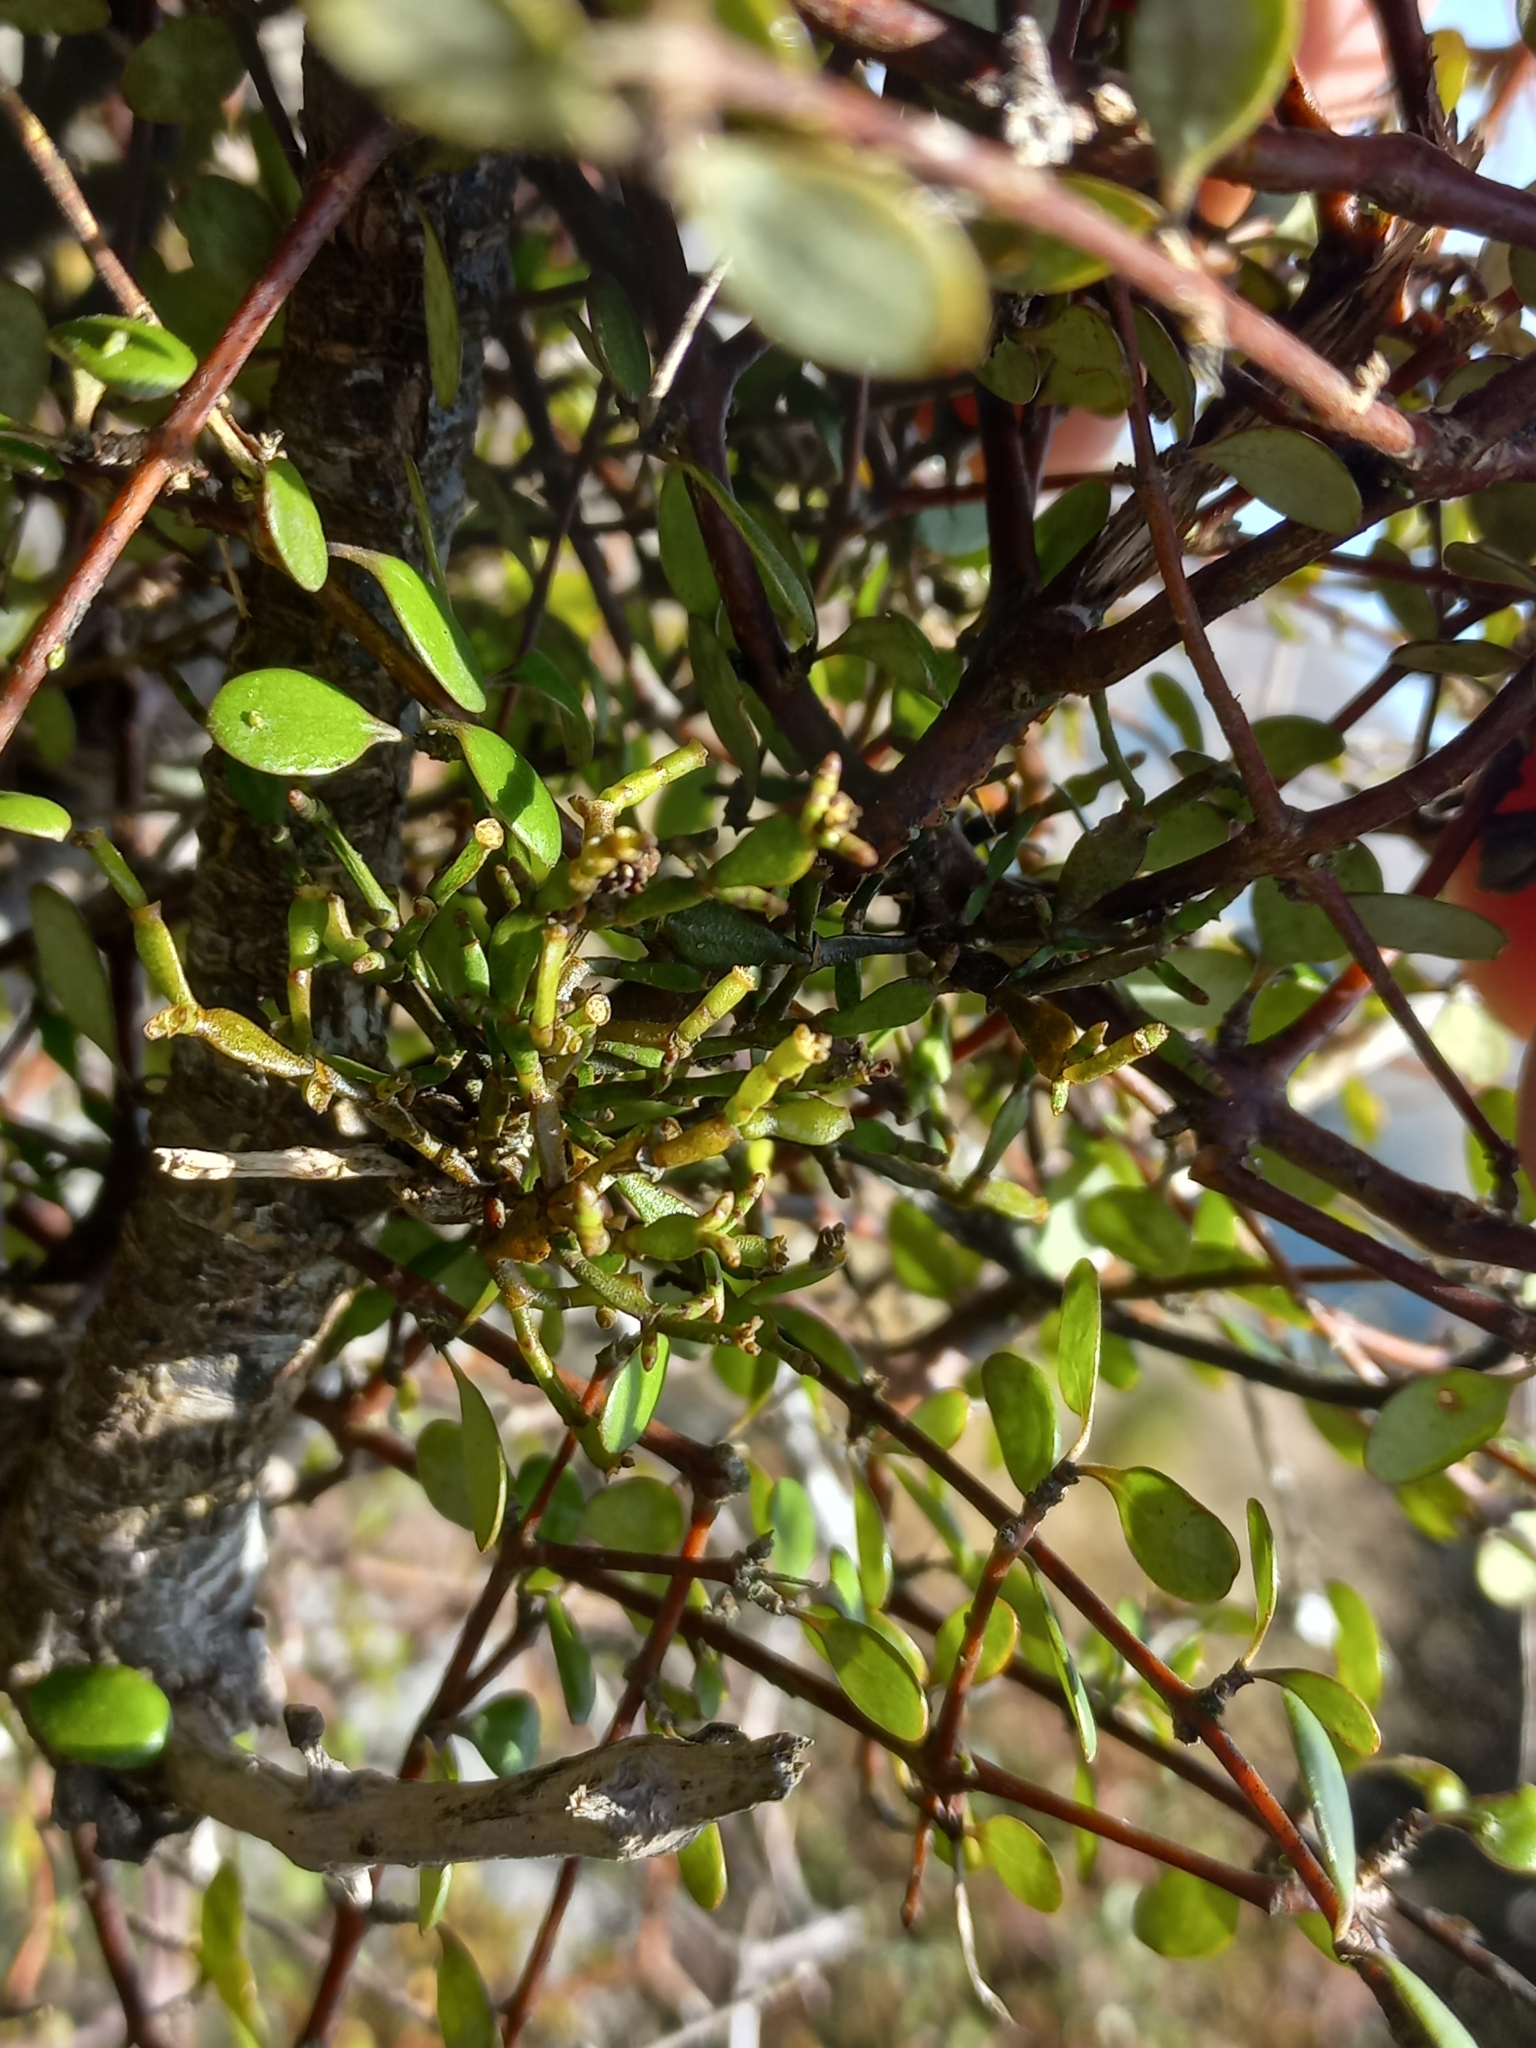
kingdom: Plantae
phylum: Tracheophyta
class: Magnoliopsida
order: Santalales
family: Viscaceae
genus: Korthalsella
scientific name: Korthalsella clavata
